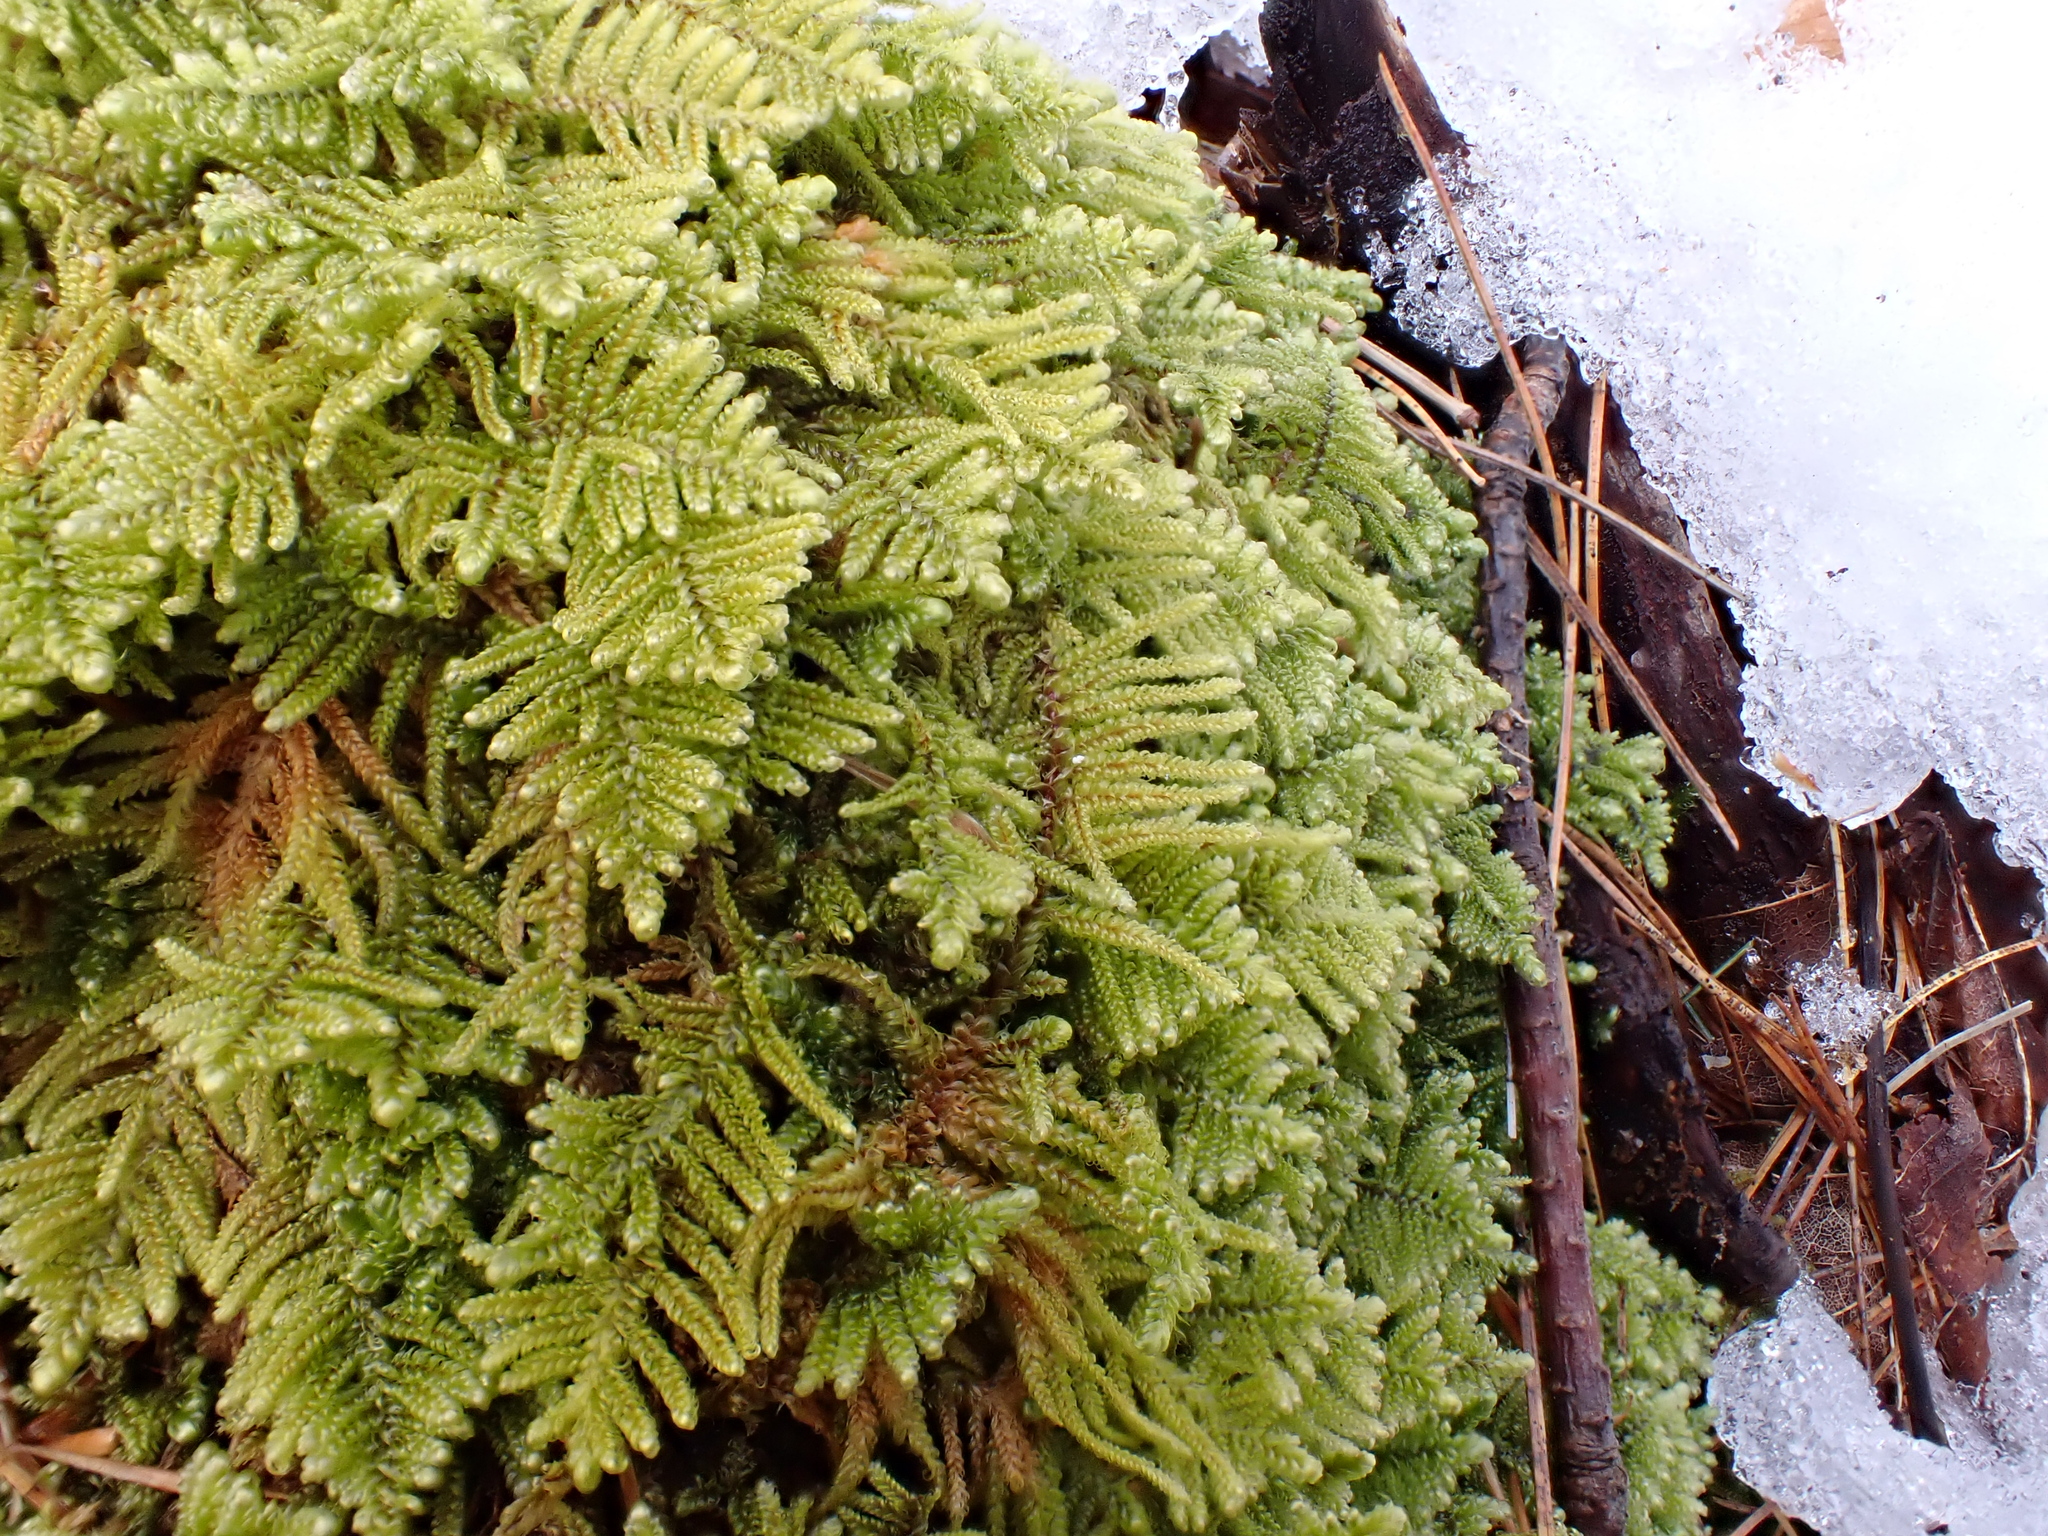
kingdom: Plantae
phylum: Bryophyta
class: Bryopsida
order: Hypnales
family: Callicladiaceae
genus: Callicladium
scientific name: Callicladium imponens
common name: Brocade moss
